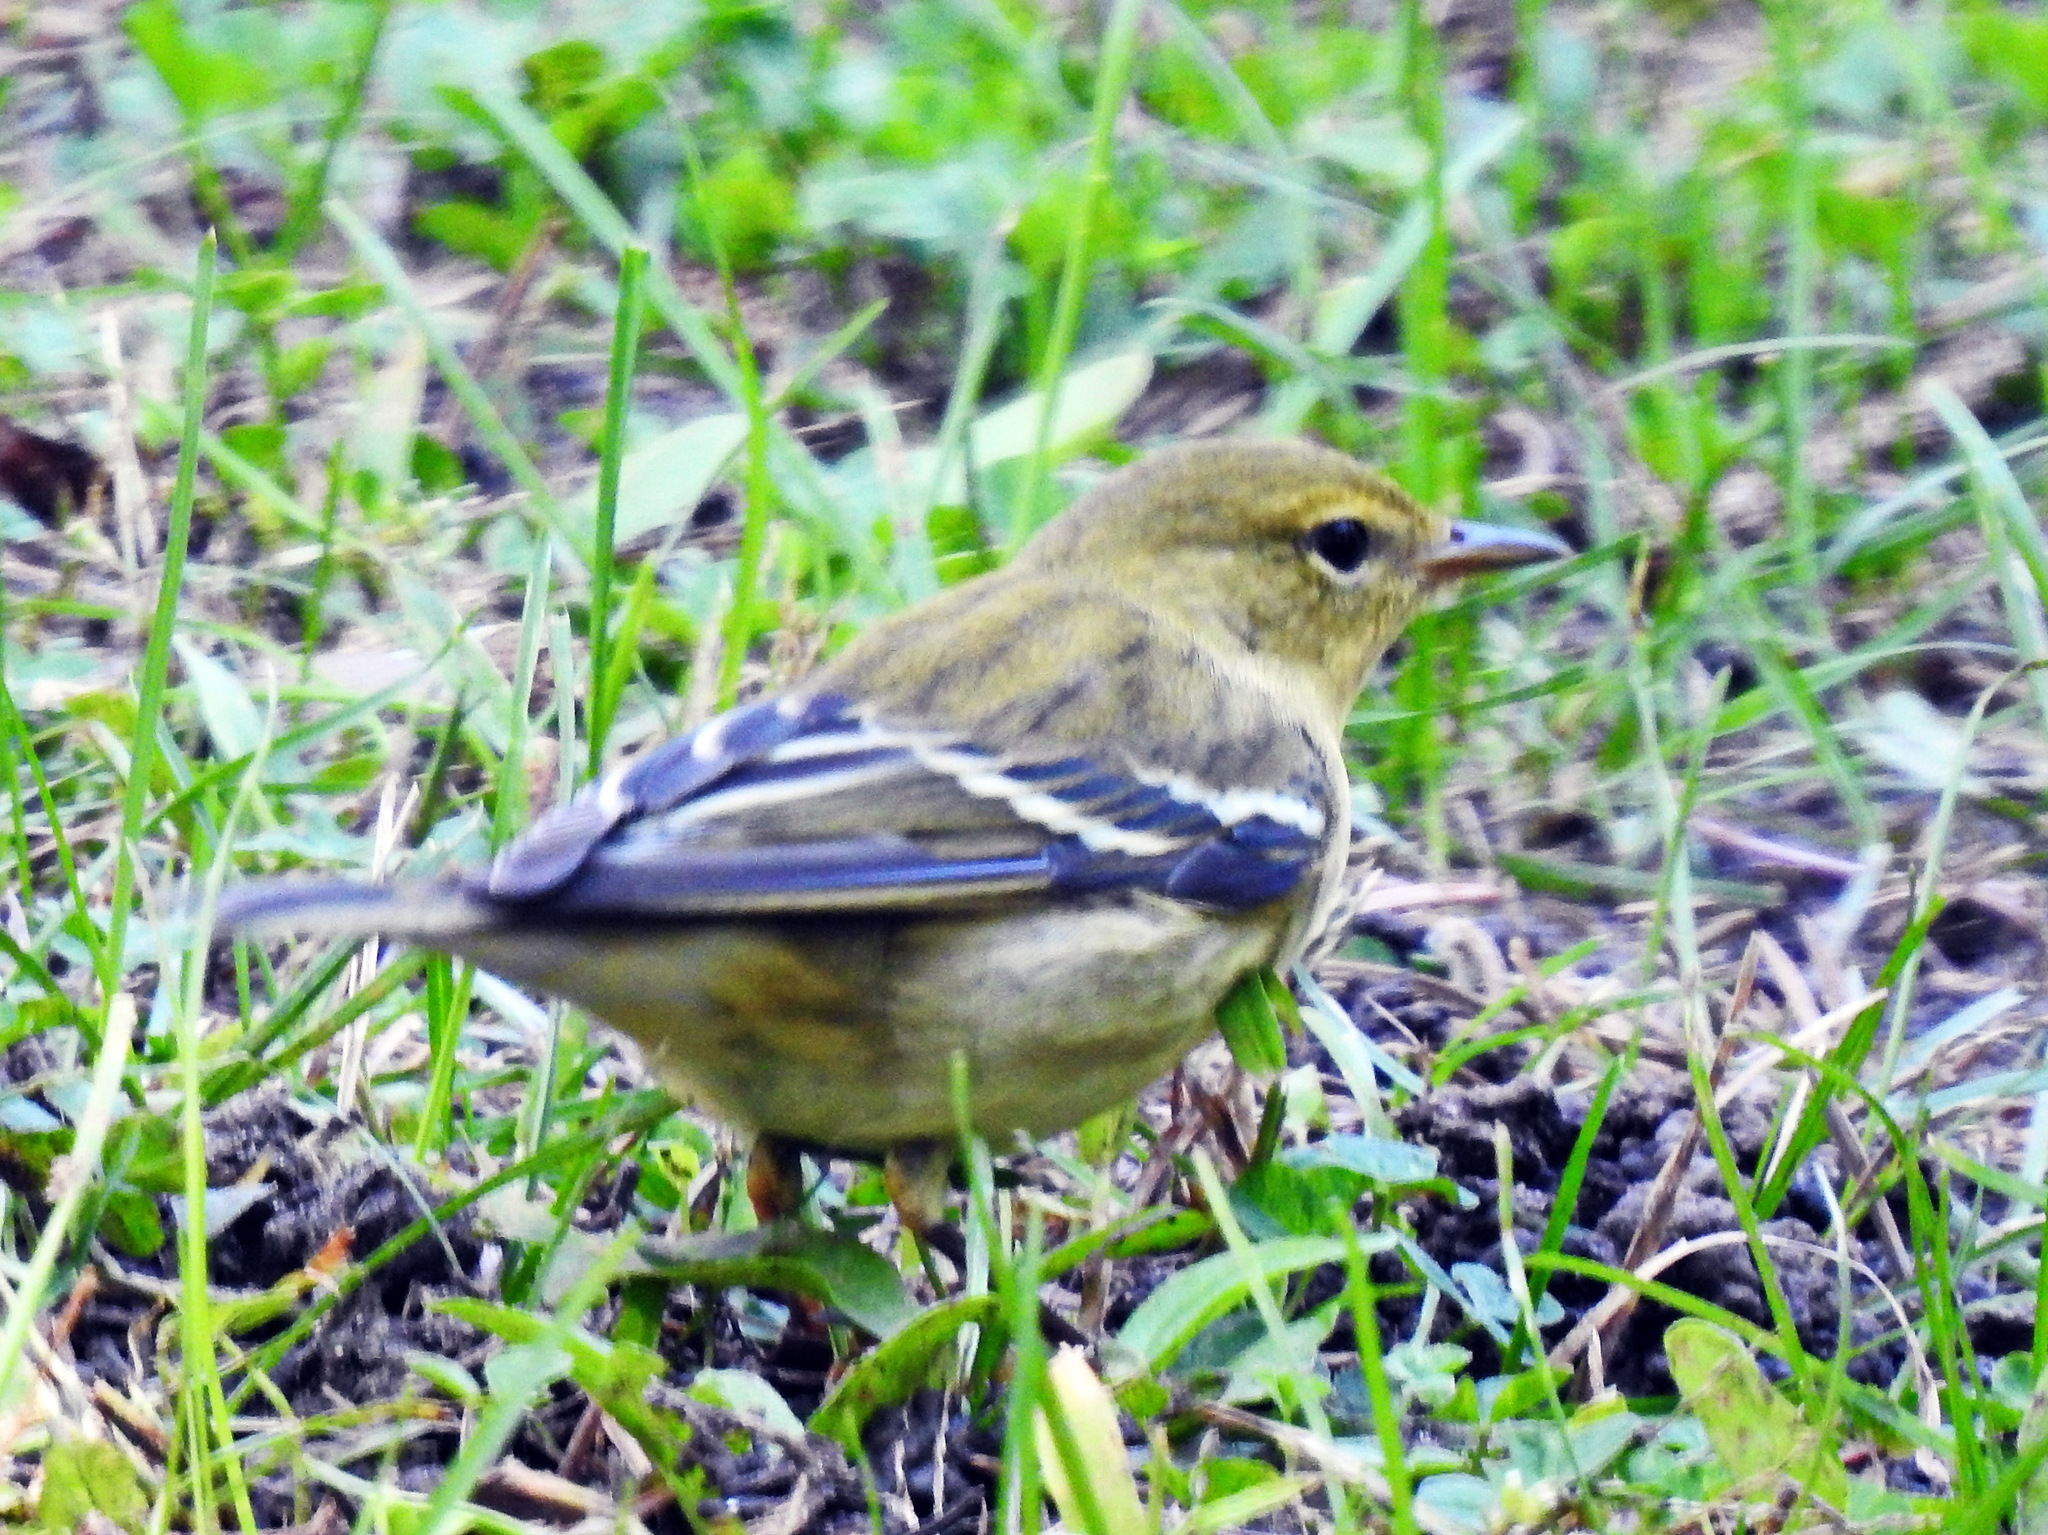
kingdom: Animalia
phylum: Chordata
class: Aves
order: Passeriformes
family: Parulidae
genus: Setophaga
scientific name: Setophaga striata
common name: Blackpoll warbler
